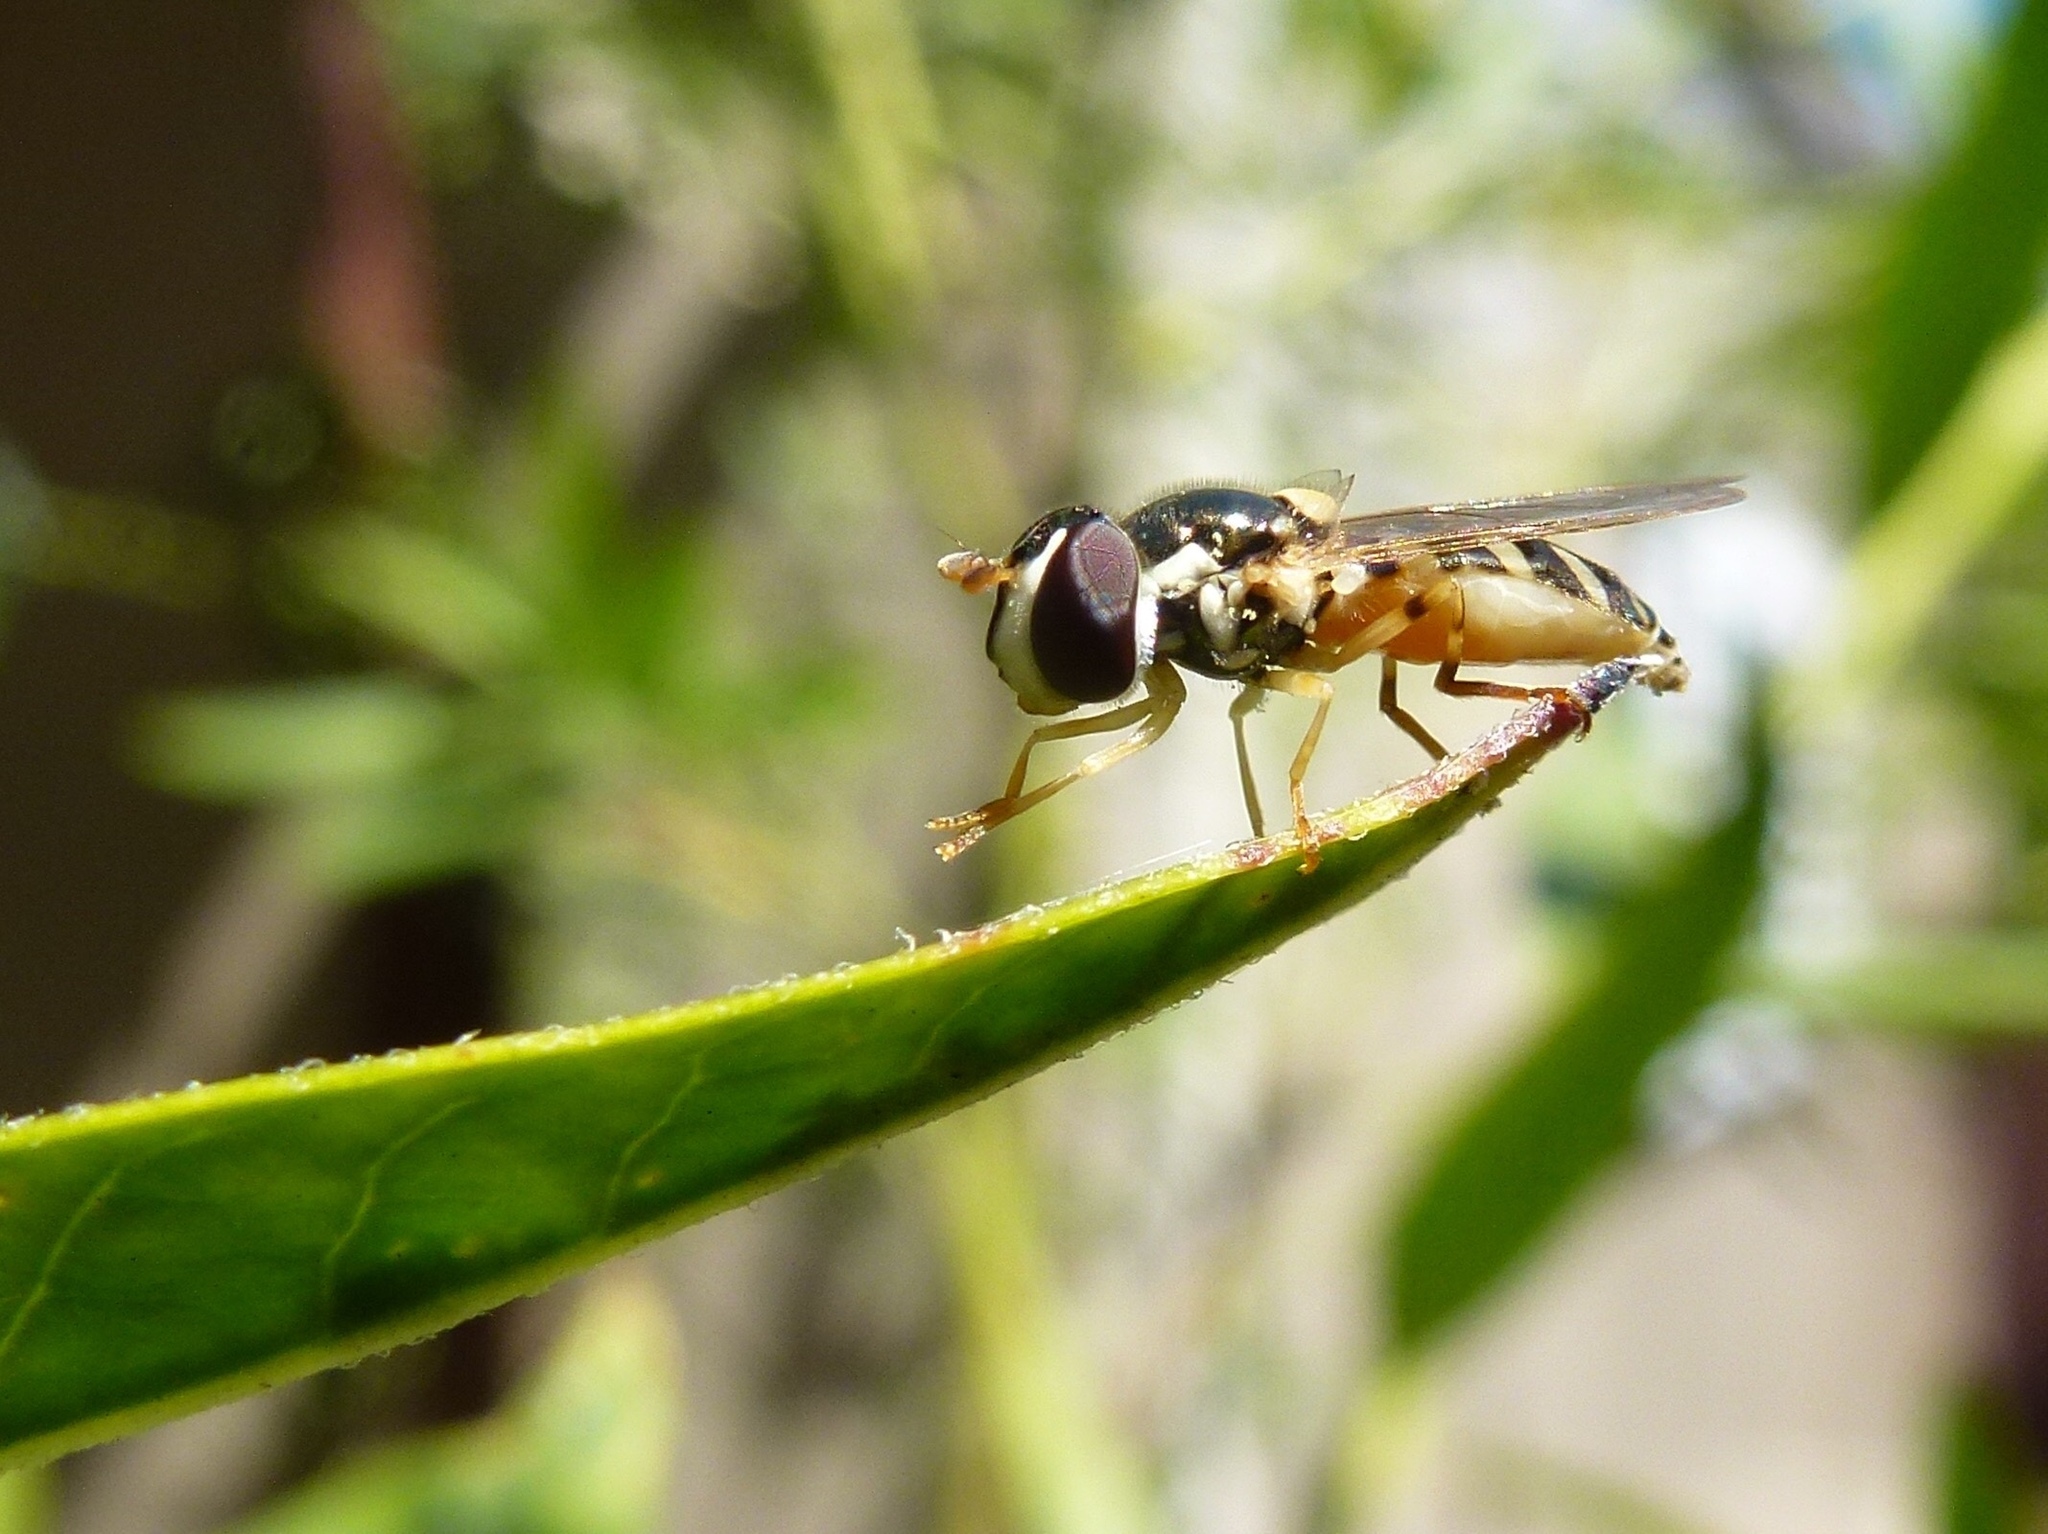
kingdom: Animalia
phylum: Arthropoda
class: Insecta
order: Diptera
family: Syrphidae
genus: Allograpta
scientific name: Allograpta exotica
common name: Syrphid fly
